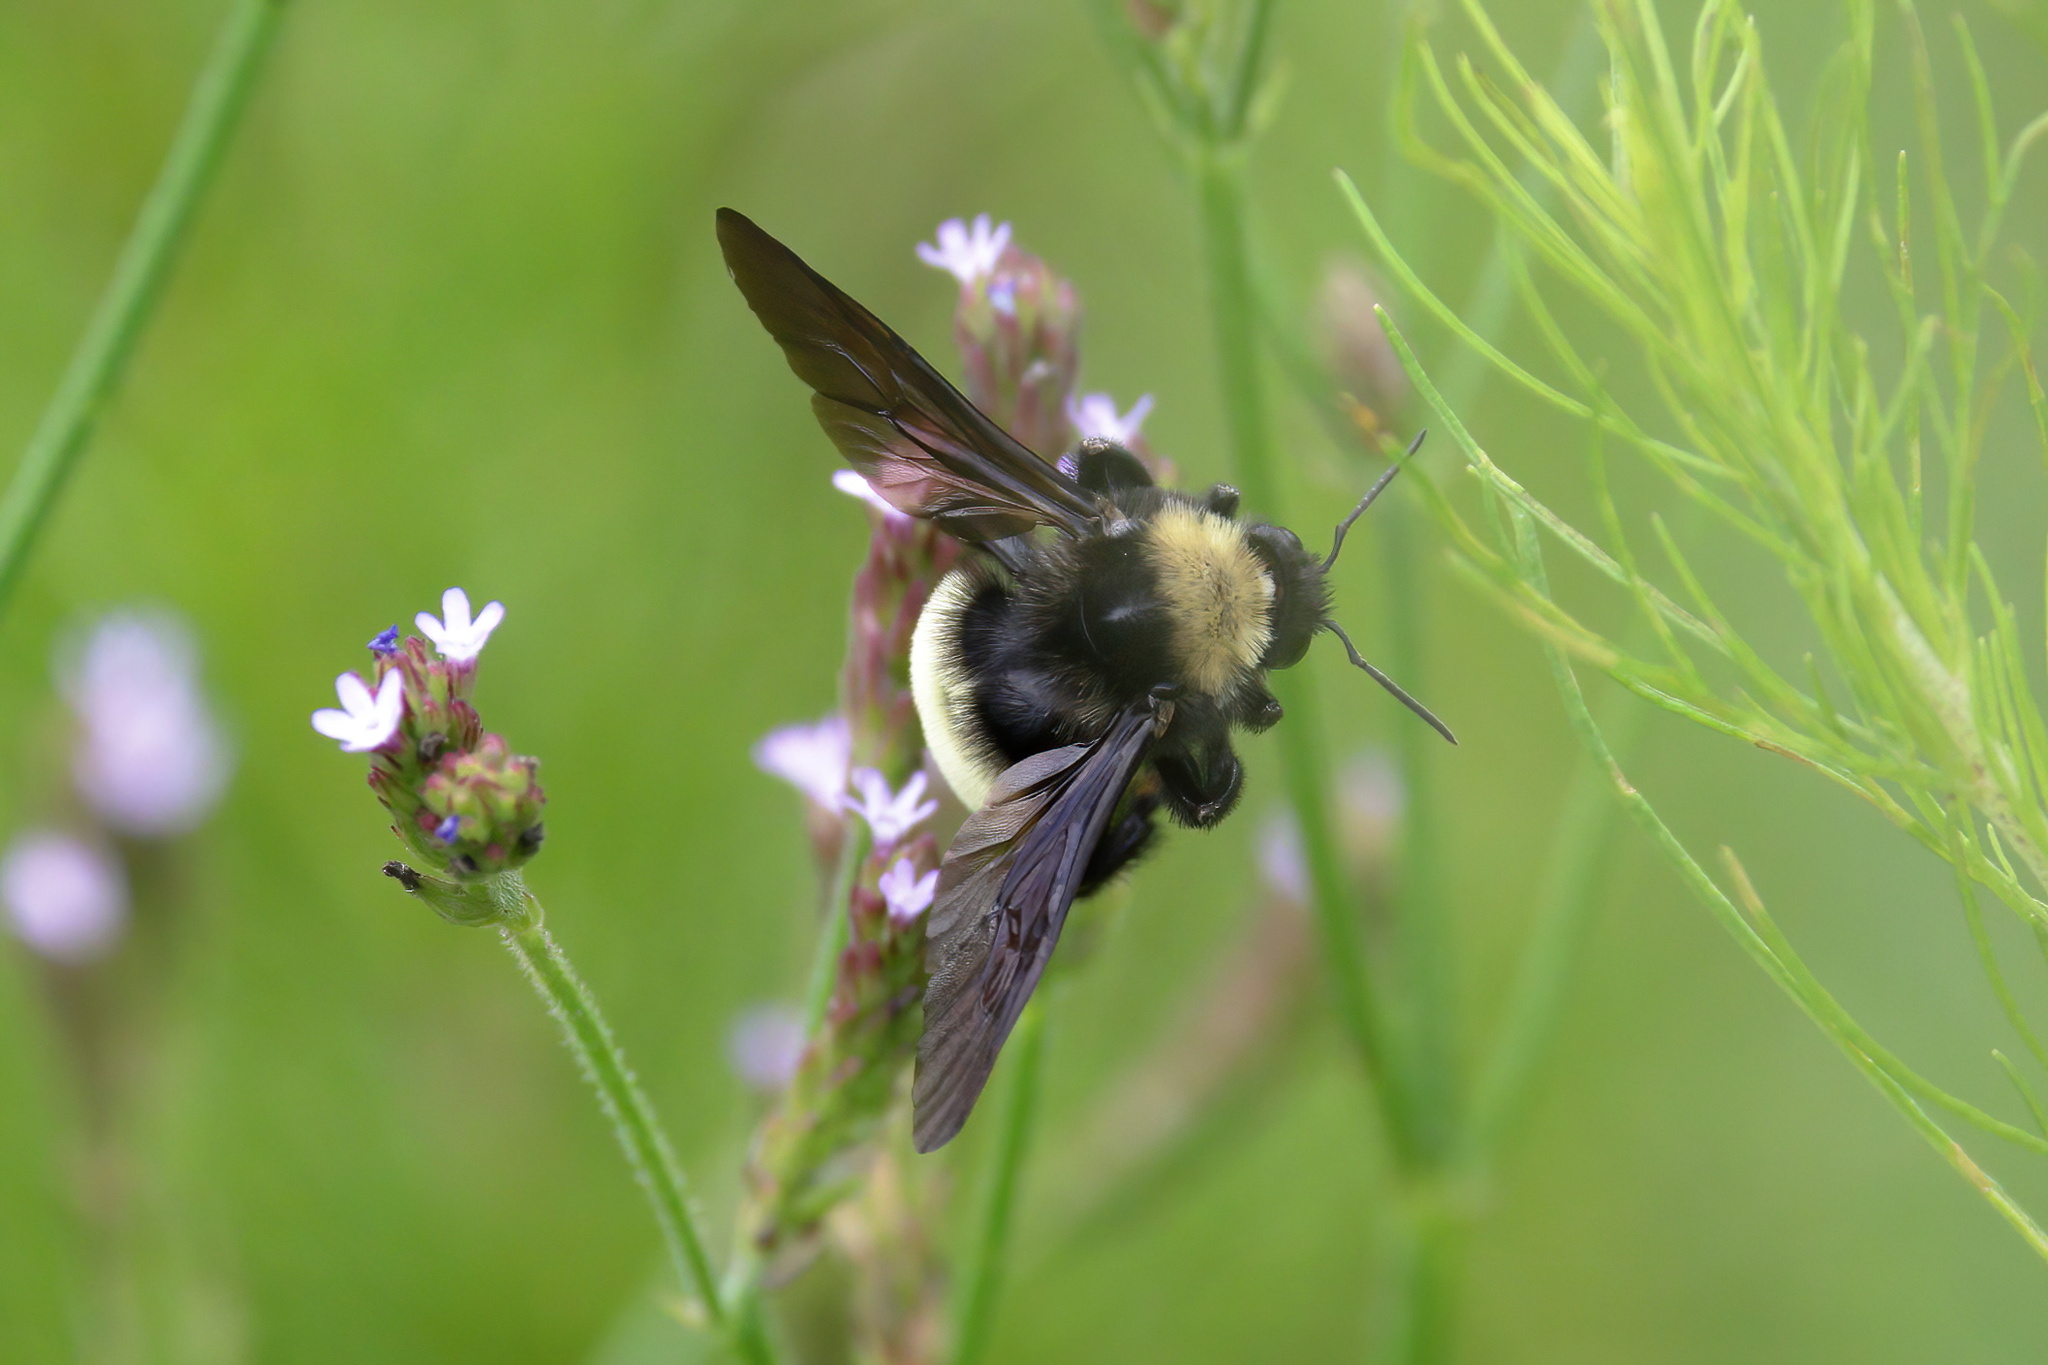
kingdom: Animalia
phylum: Arthropoda
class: Insecta
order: Hymenoptera
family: Apidae
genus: Bombus
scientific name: Bombus pensylvanicus
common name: Bumble bee
